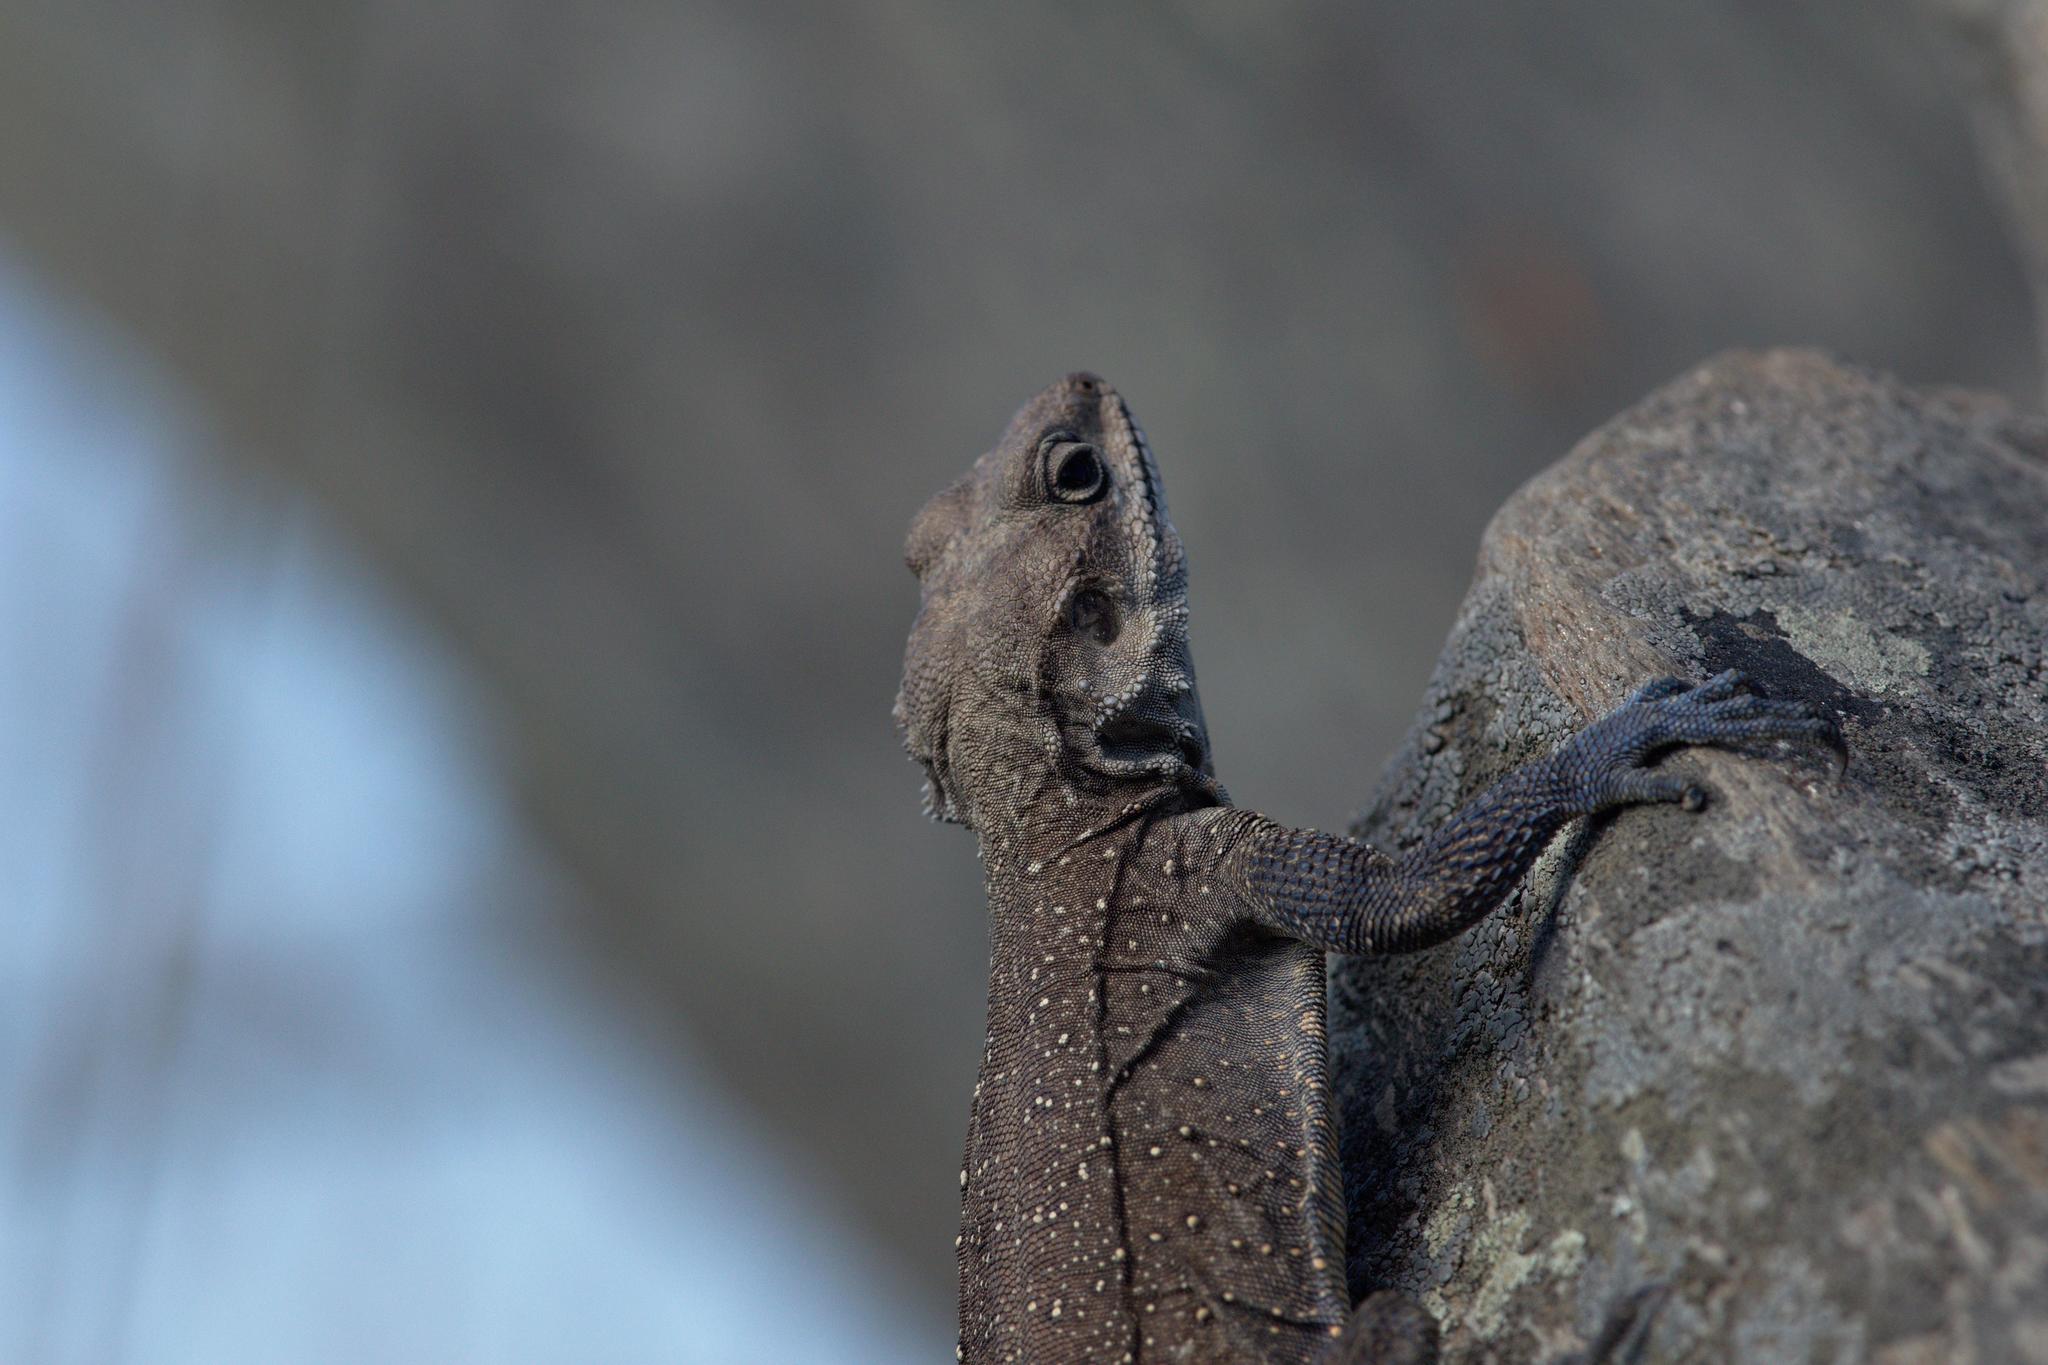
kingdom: Animalia
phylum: Chordata
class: Squamata
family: Agamidae
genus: Laudakia
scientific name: Laudakia tuberculata
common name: Kashmir rock agama
